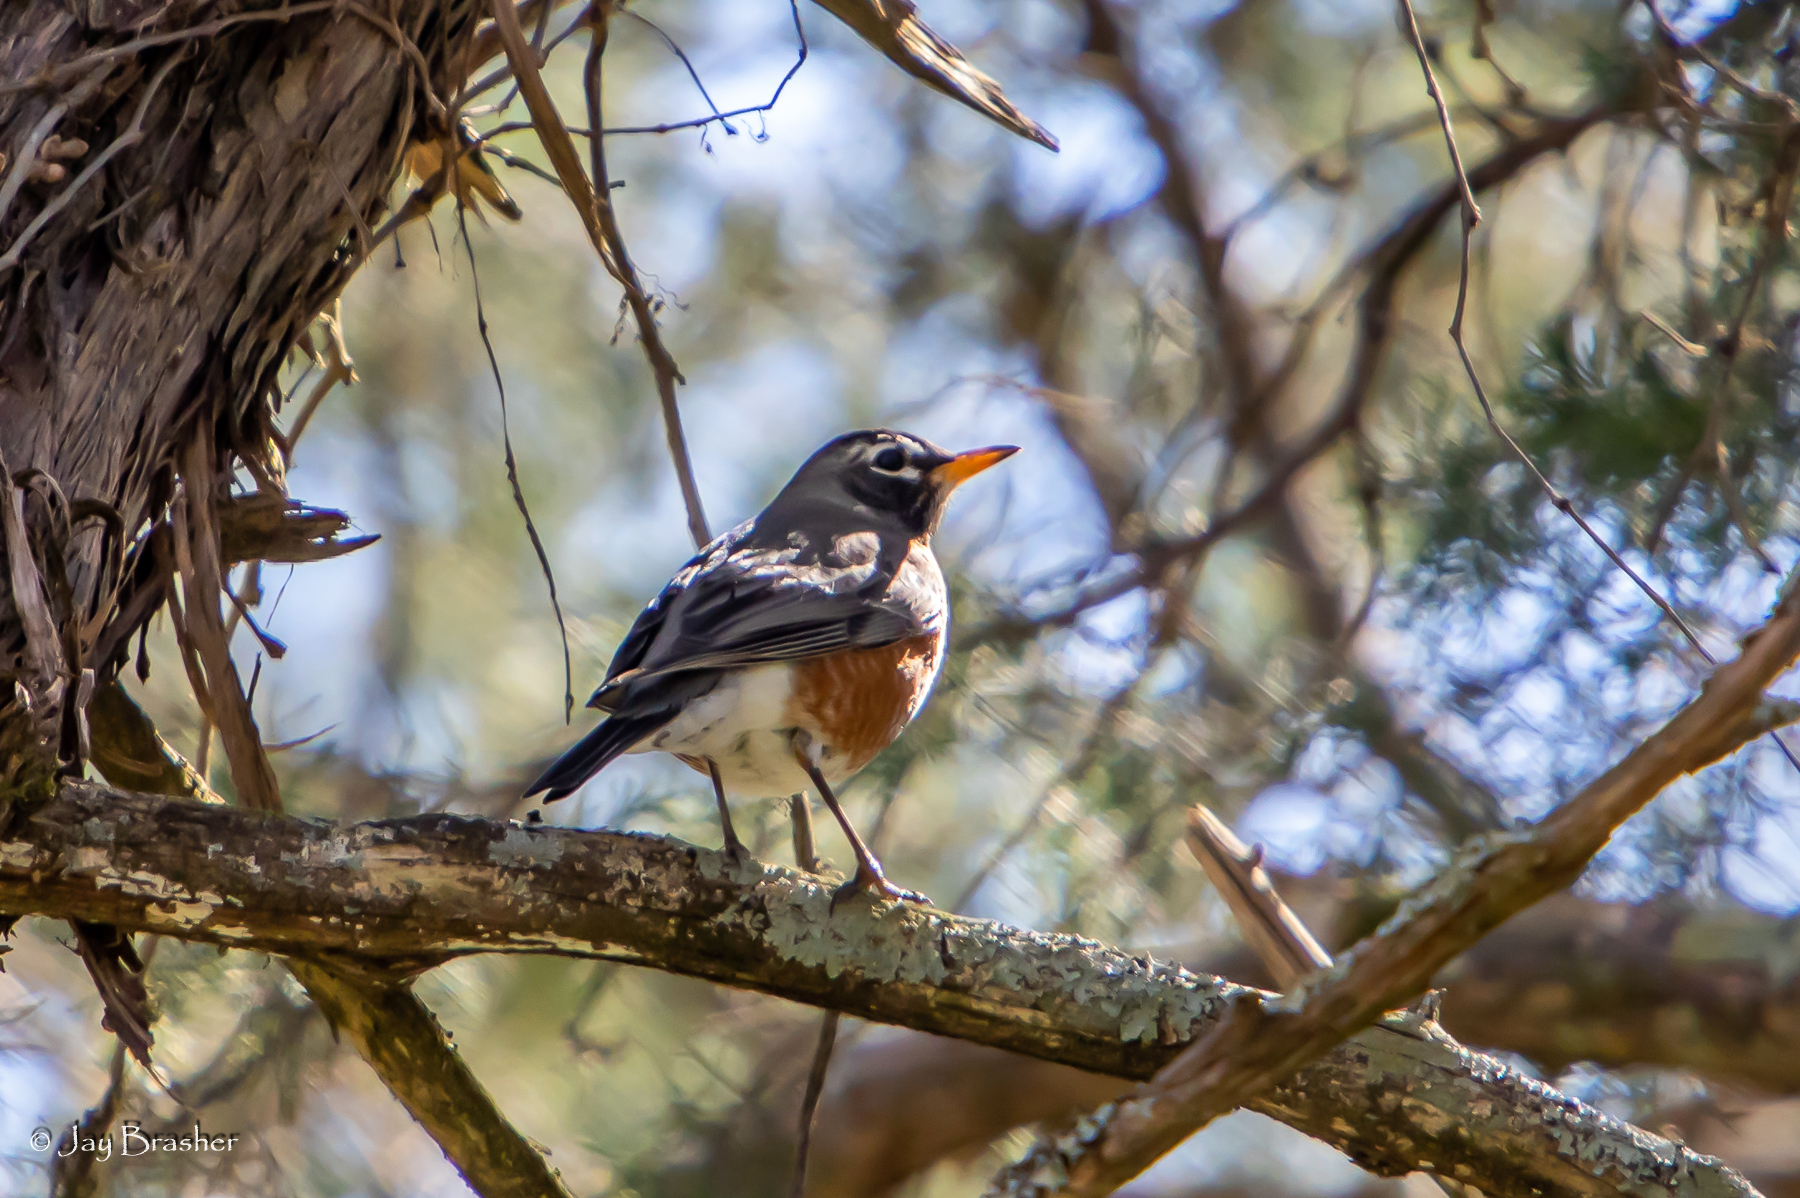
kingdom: Animalia
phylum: Chordata
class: Aves
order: Passeriformes
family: Turdidae
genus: Turdus
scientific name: Turdus migratorius
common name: American robin
